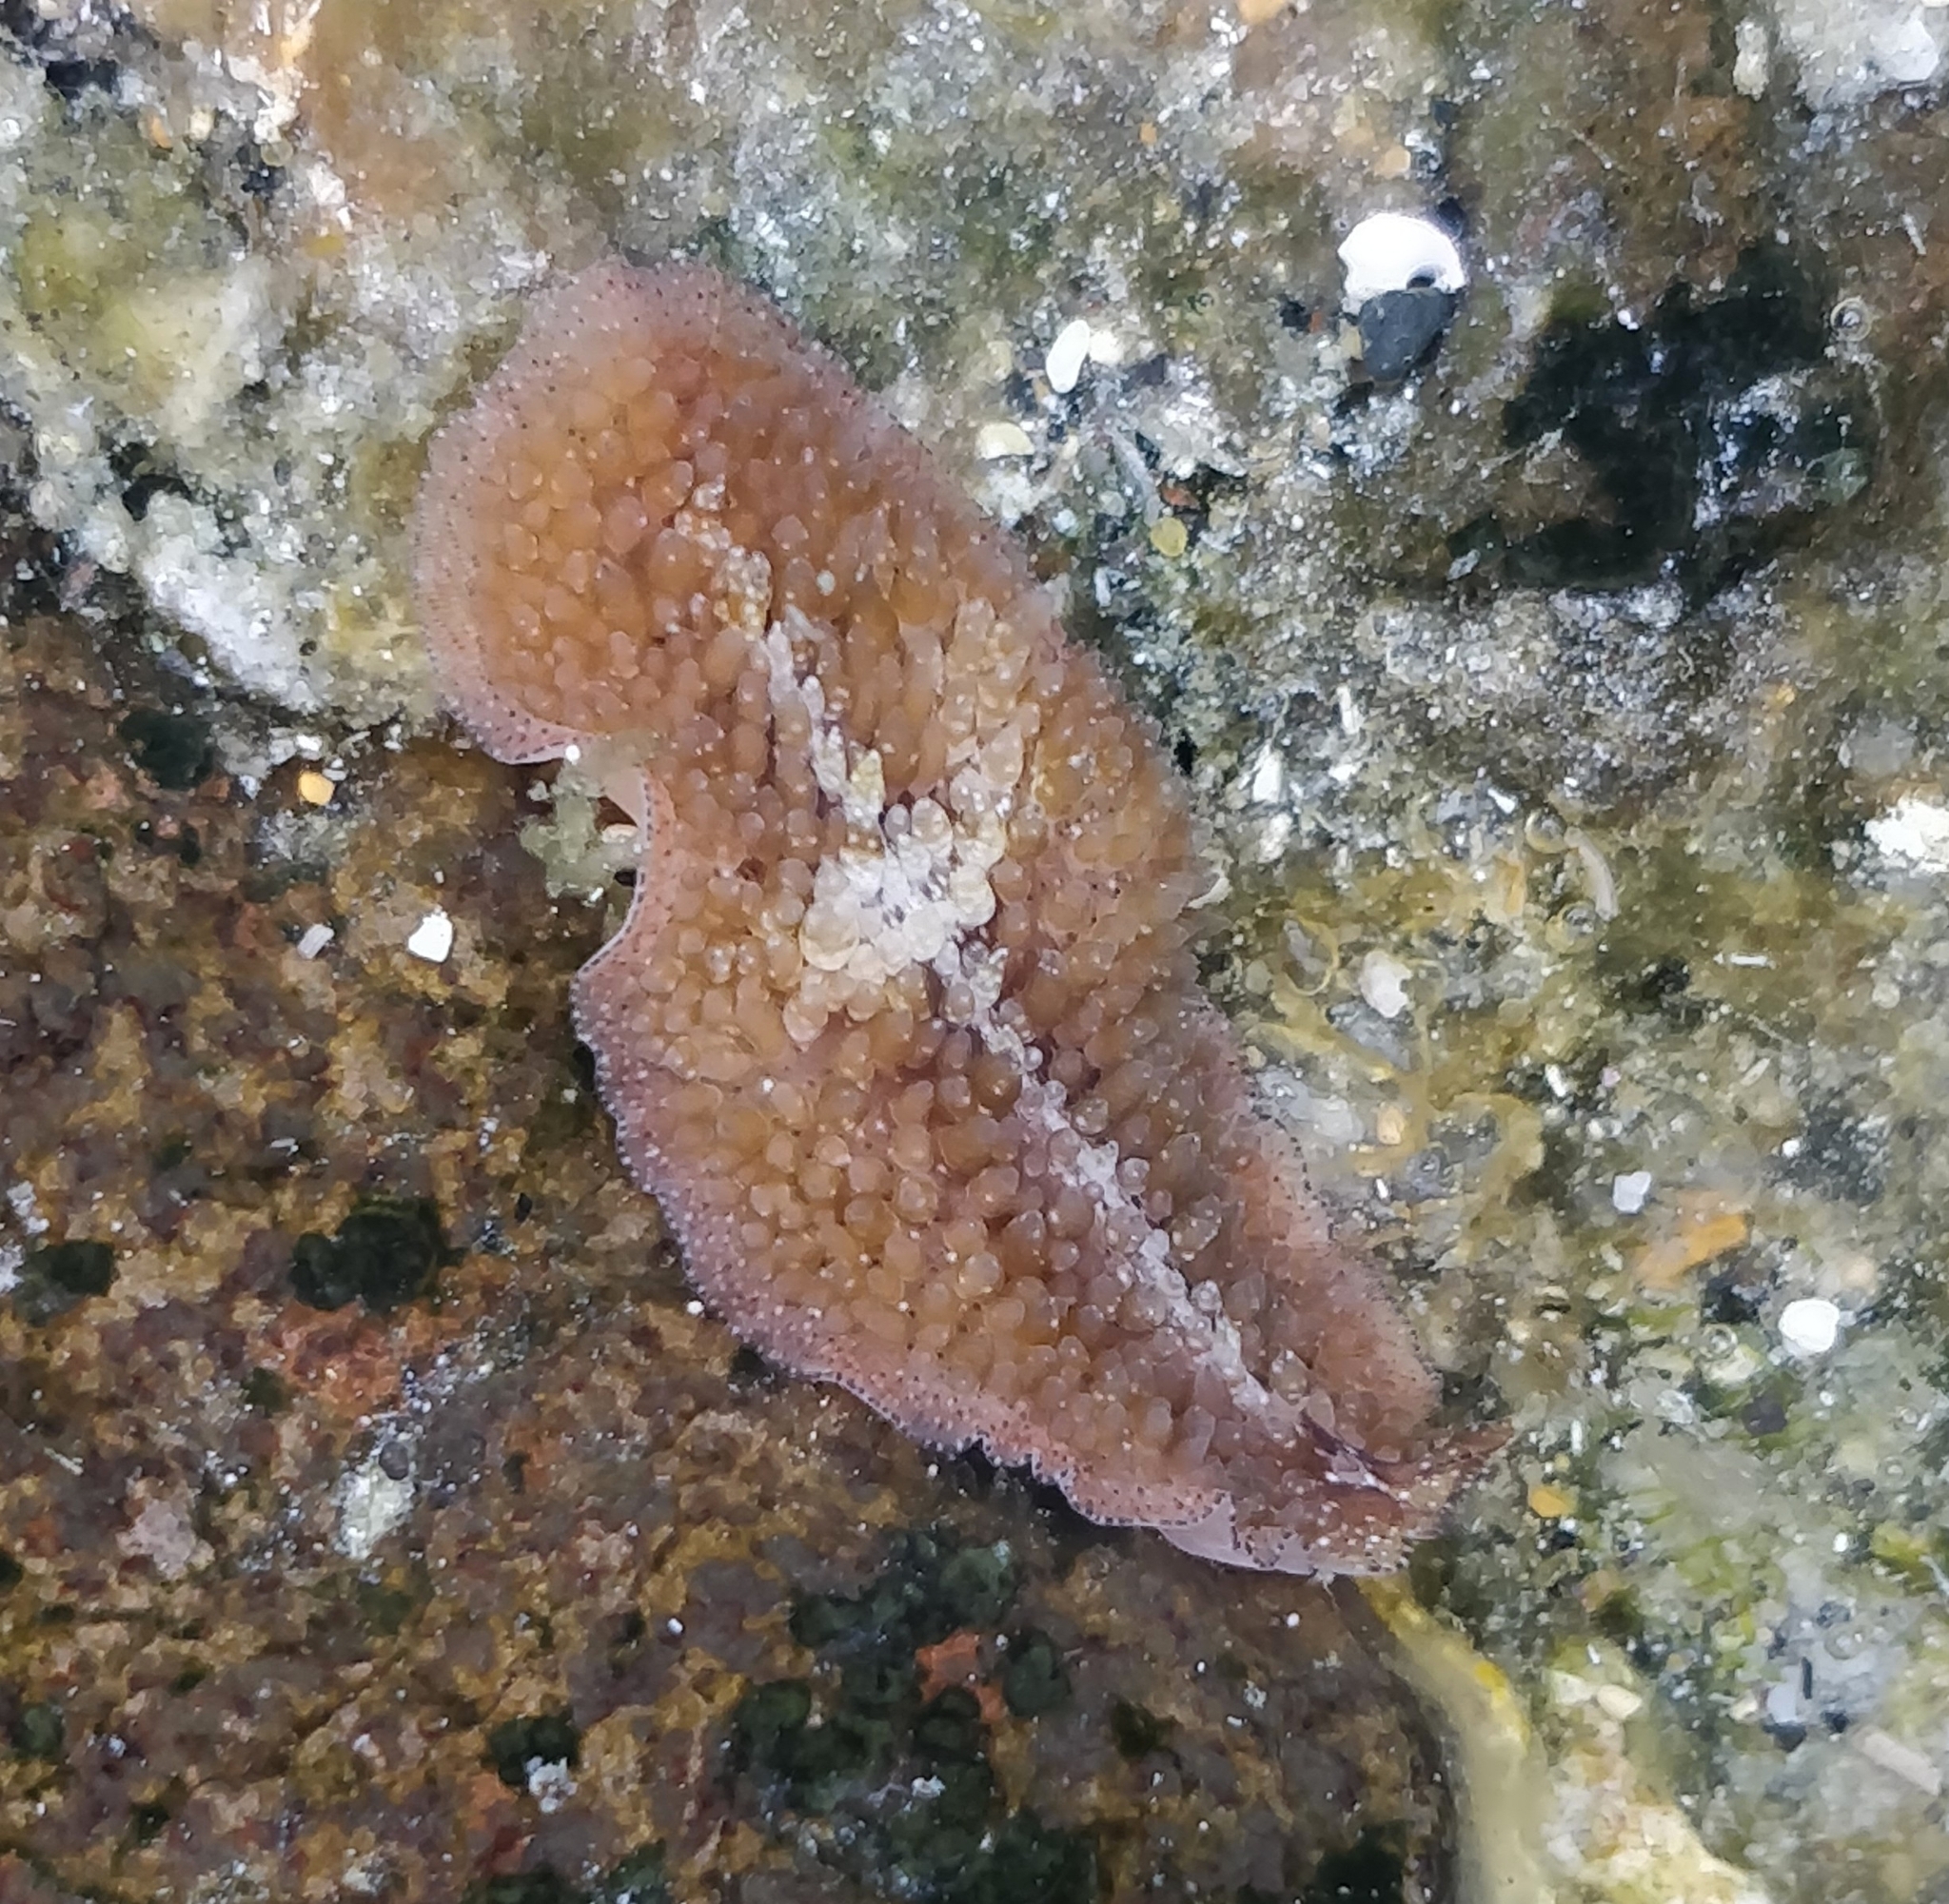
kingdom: Animalia
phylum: Platyhelminthes
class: Turbellaria
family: Pseudocerotidae
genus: Thysanozoon
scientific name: Thysanozoon brocchii
